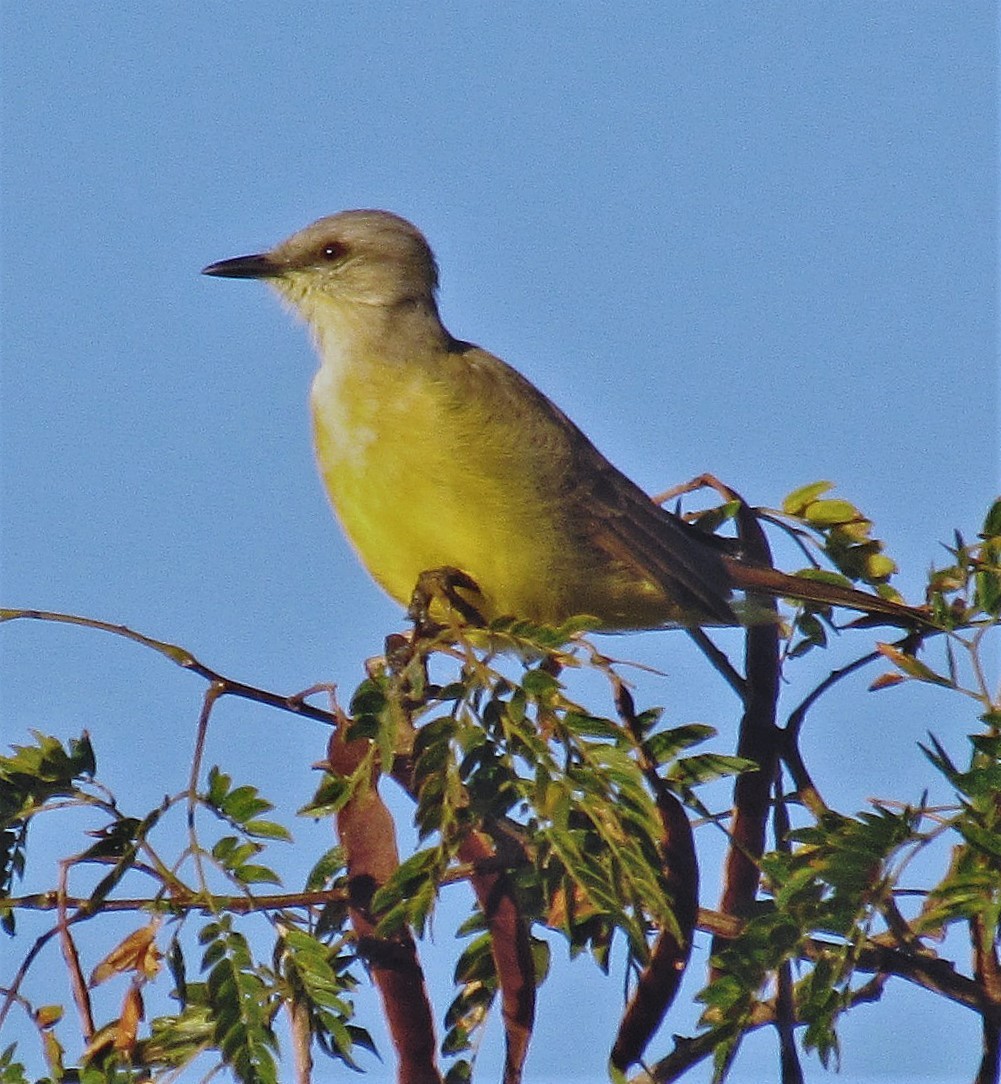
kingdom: Animalia
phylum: Chordata
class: Aves
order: Passeriformes
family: Tyrannidae
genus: Machetornis
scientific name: Machetornis rixosa
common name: Cattle tyrant
